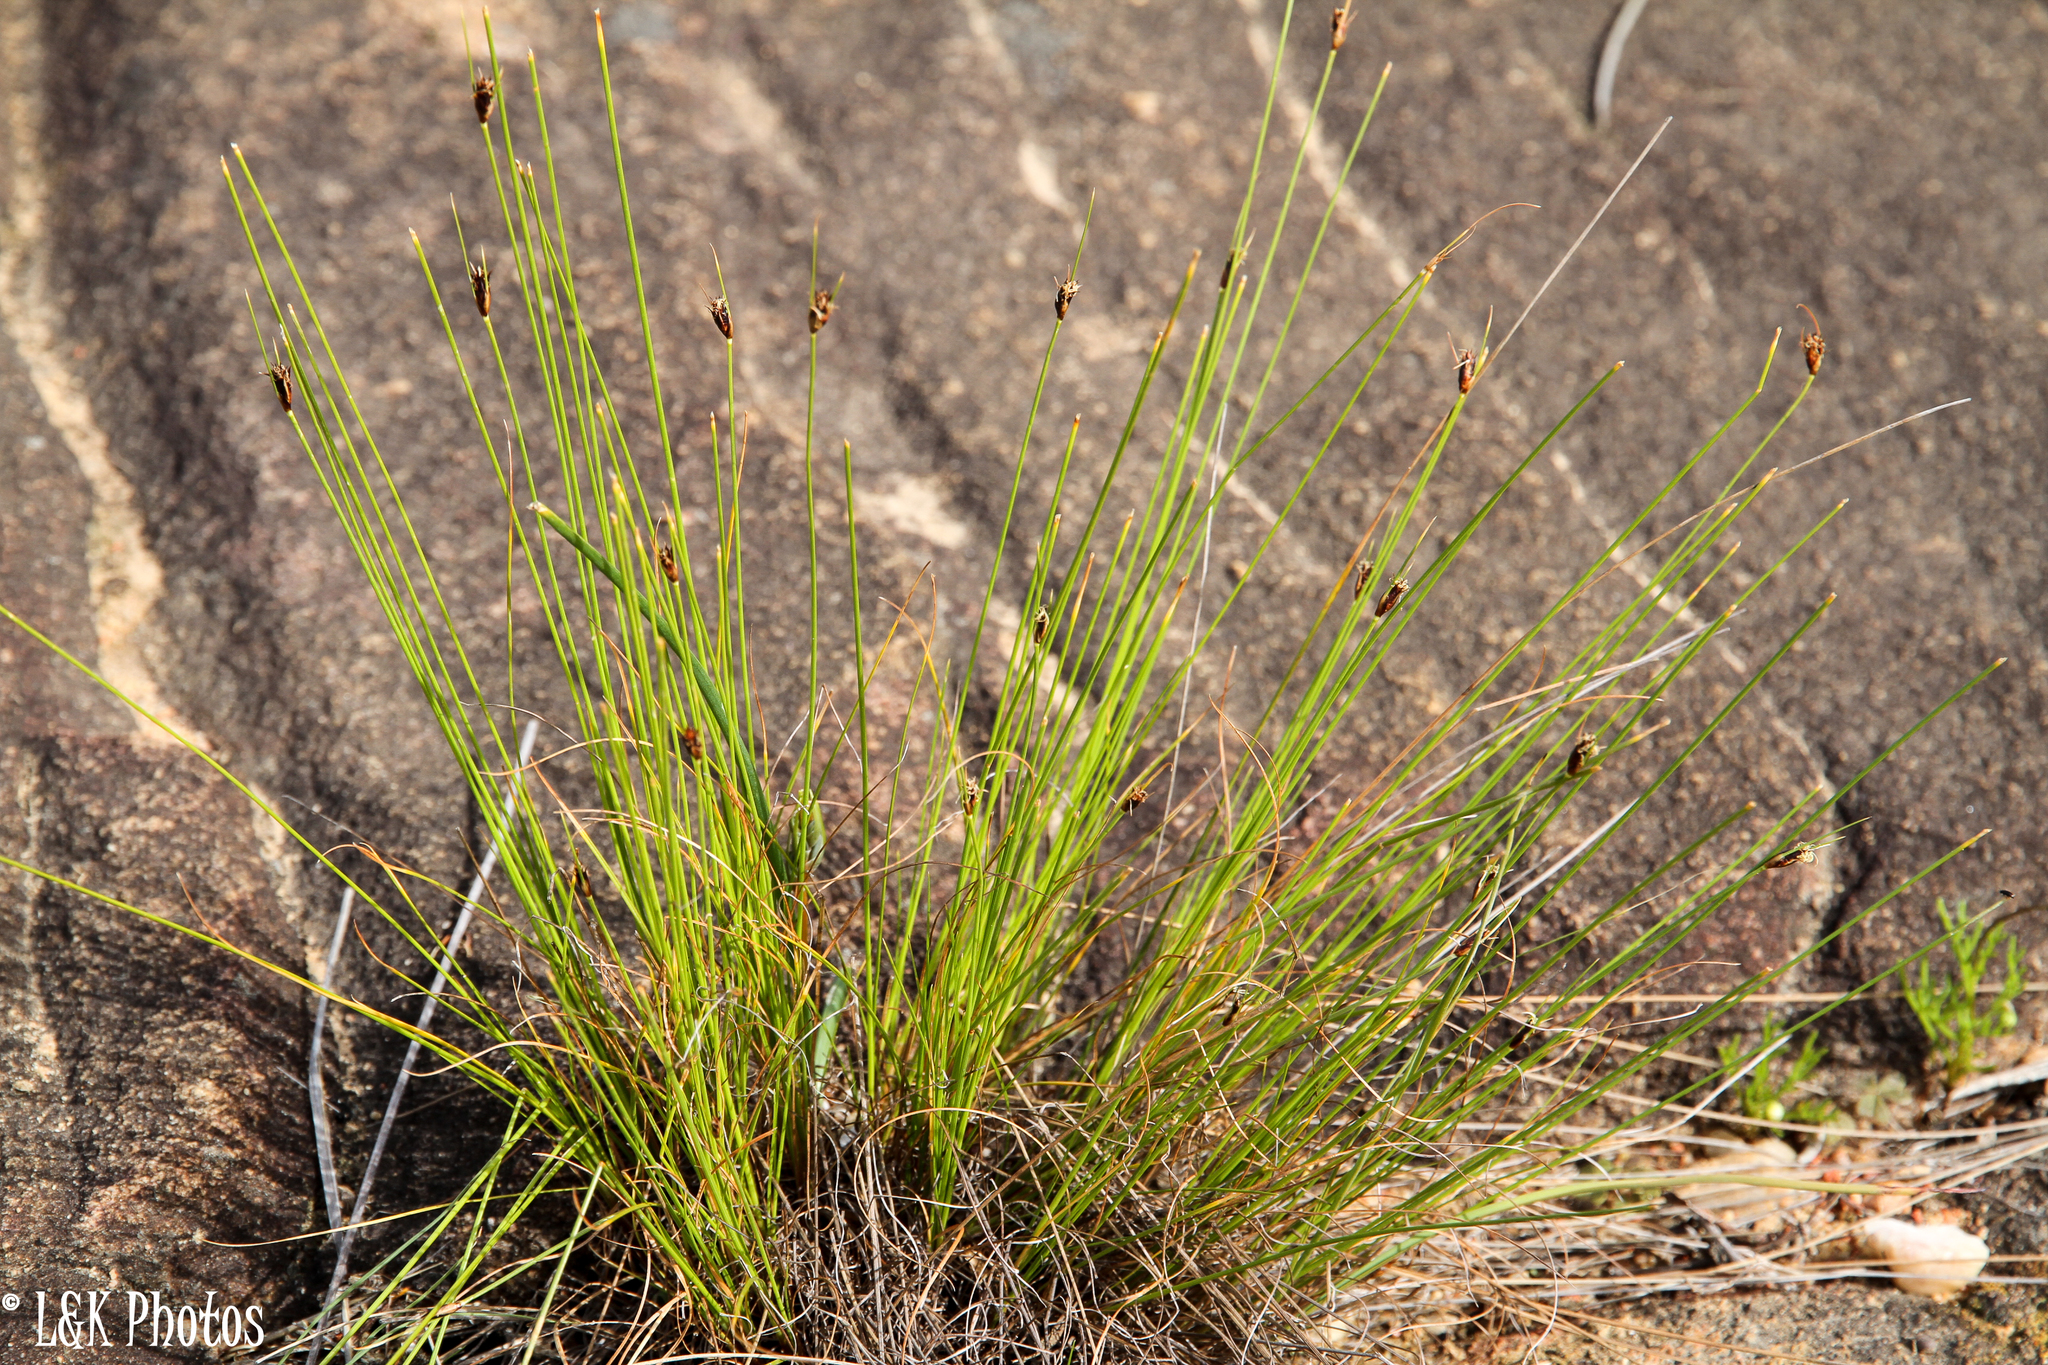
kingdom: Plantae
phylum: Tracheophyta
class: Liliopsida
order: Poales
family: Cyperaceae
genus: Ficinia
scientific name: Ficinia nigrescens
